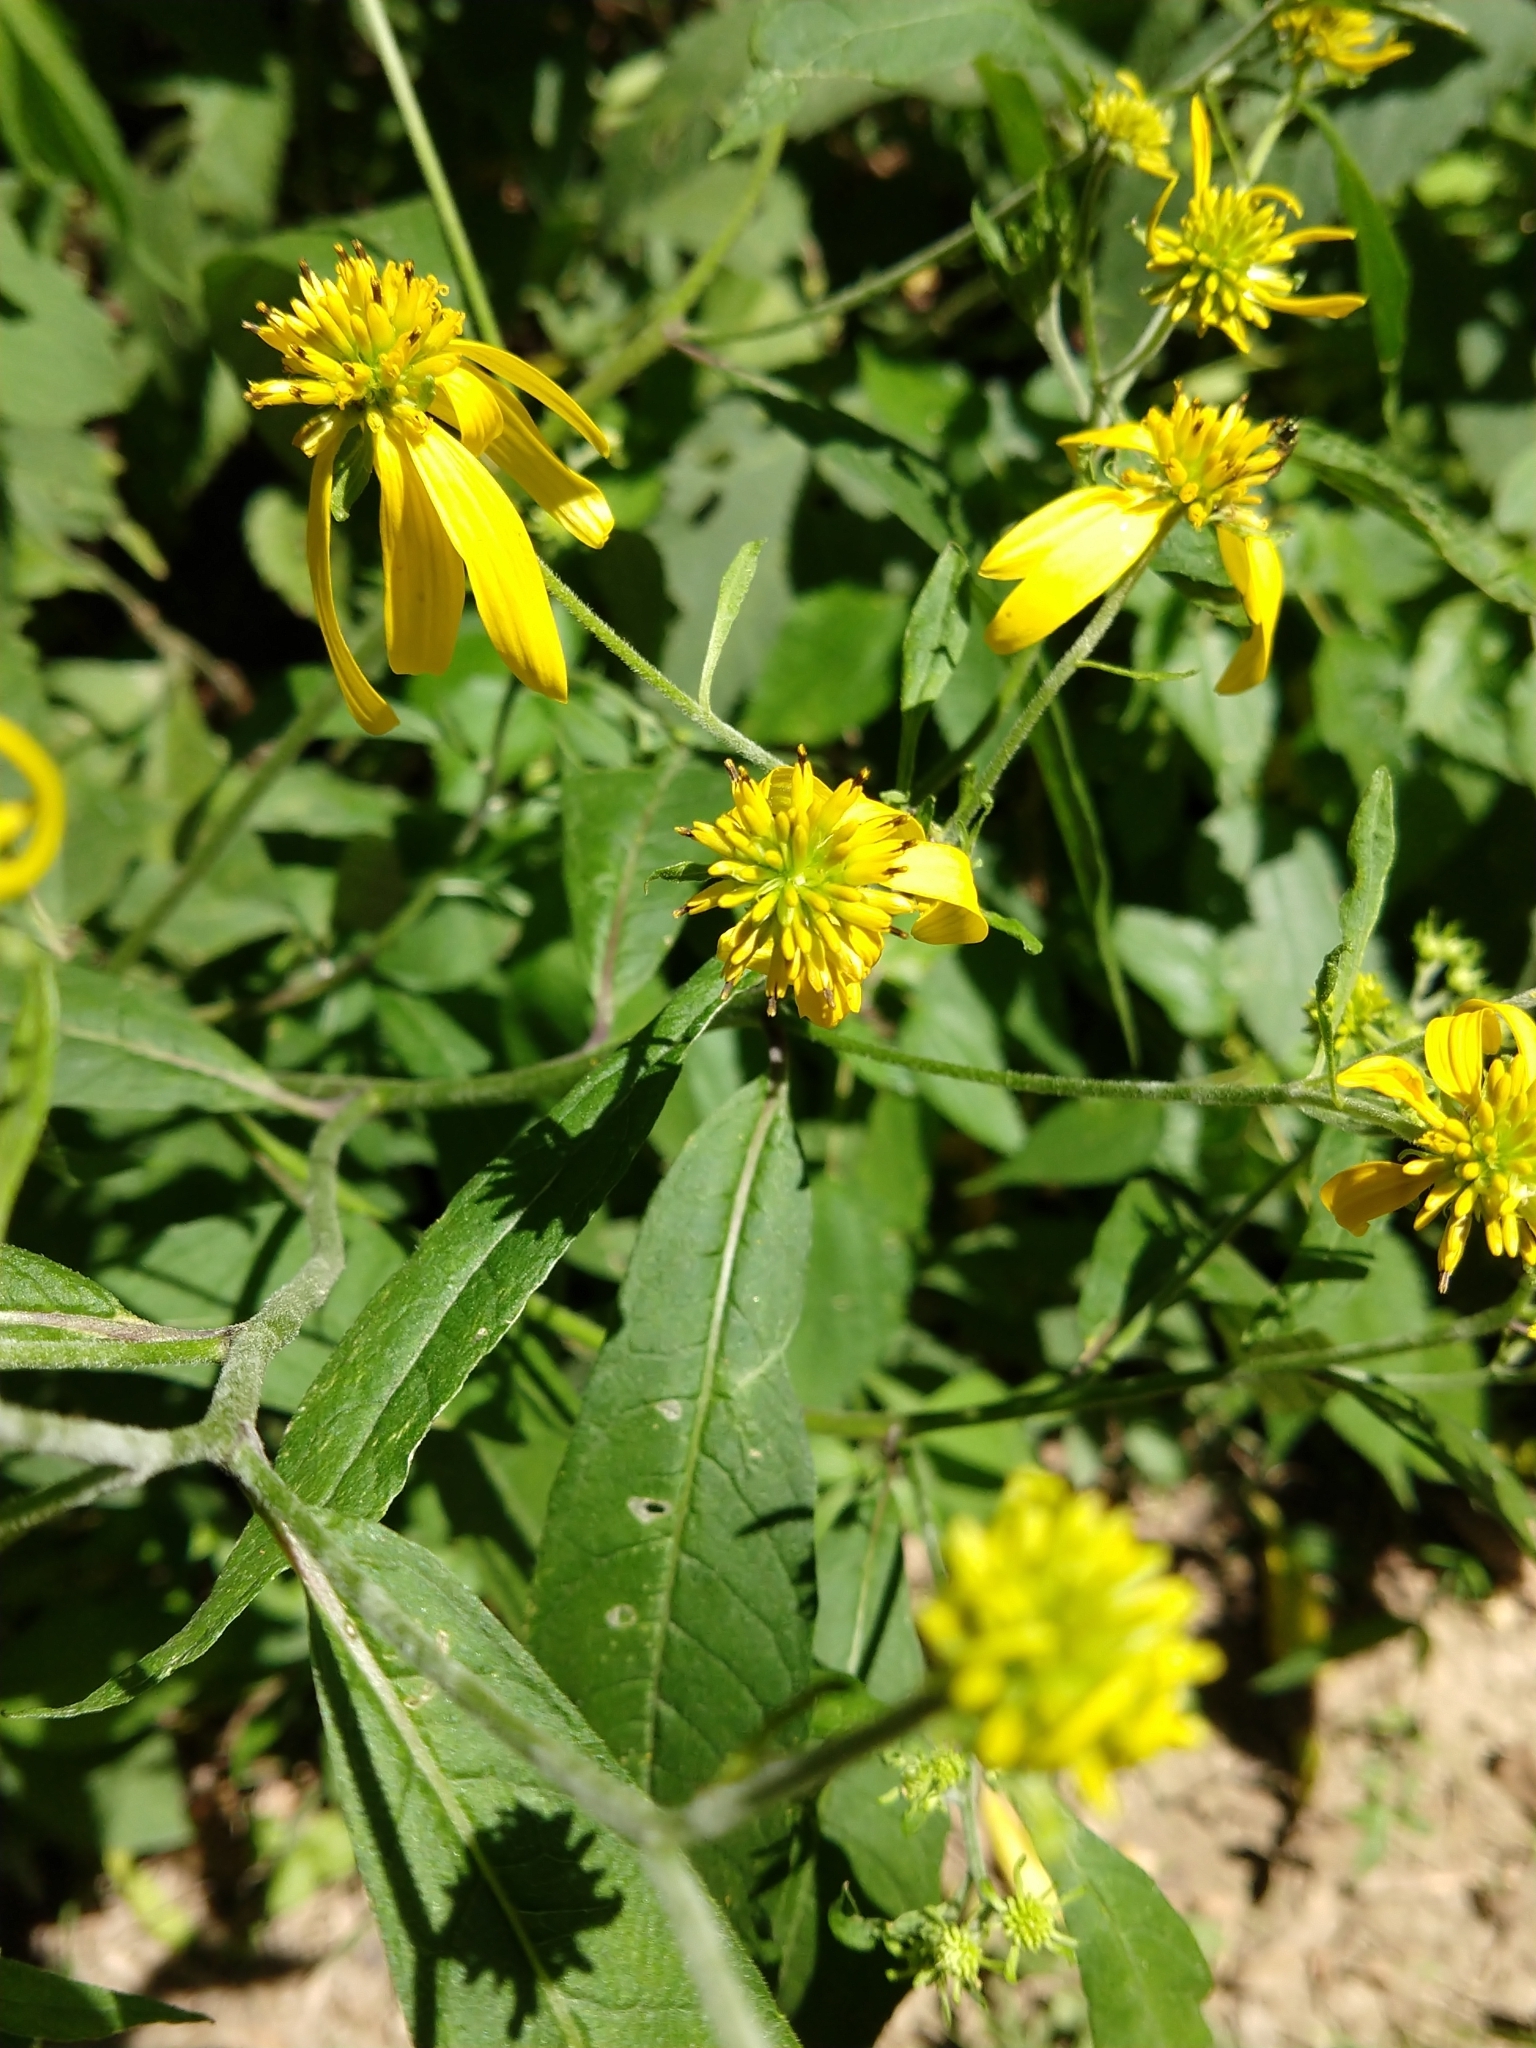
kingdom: Plantae
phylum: Tracheophyta
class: Magnoliopsida
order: Asterales
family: Asteraceae
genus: Verbesina
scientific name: Verbesina alternifolia
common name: Wingstem
